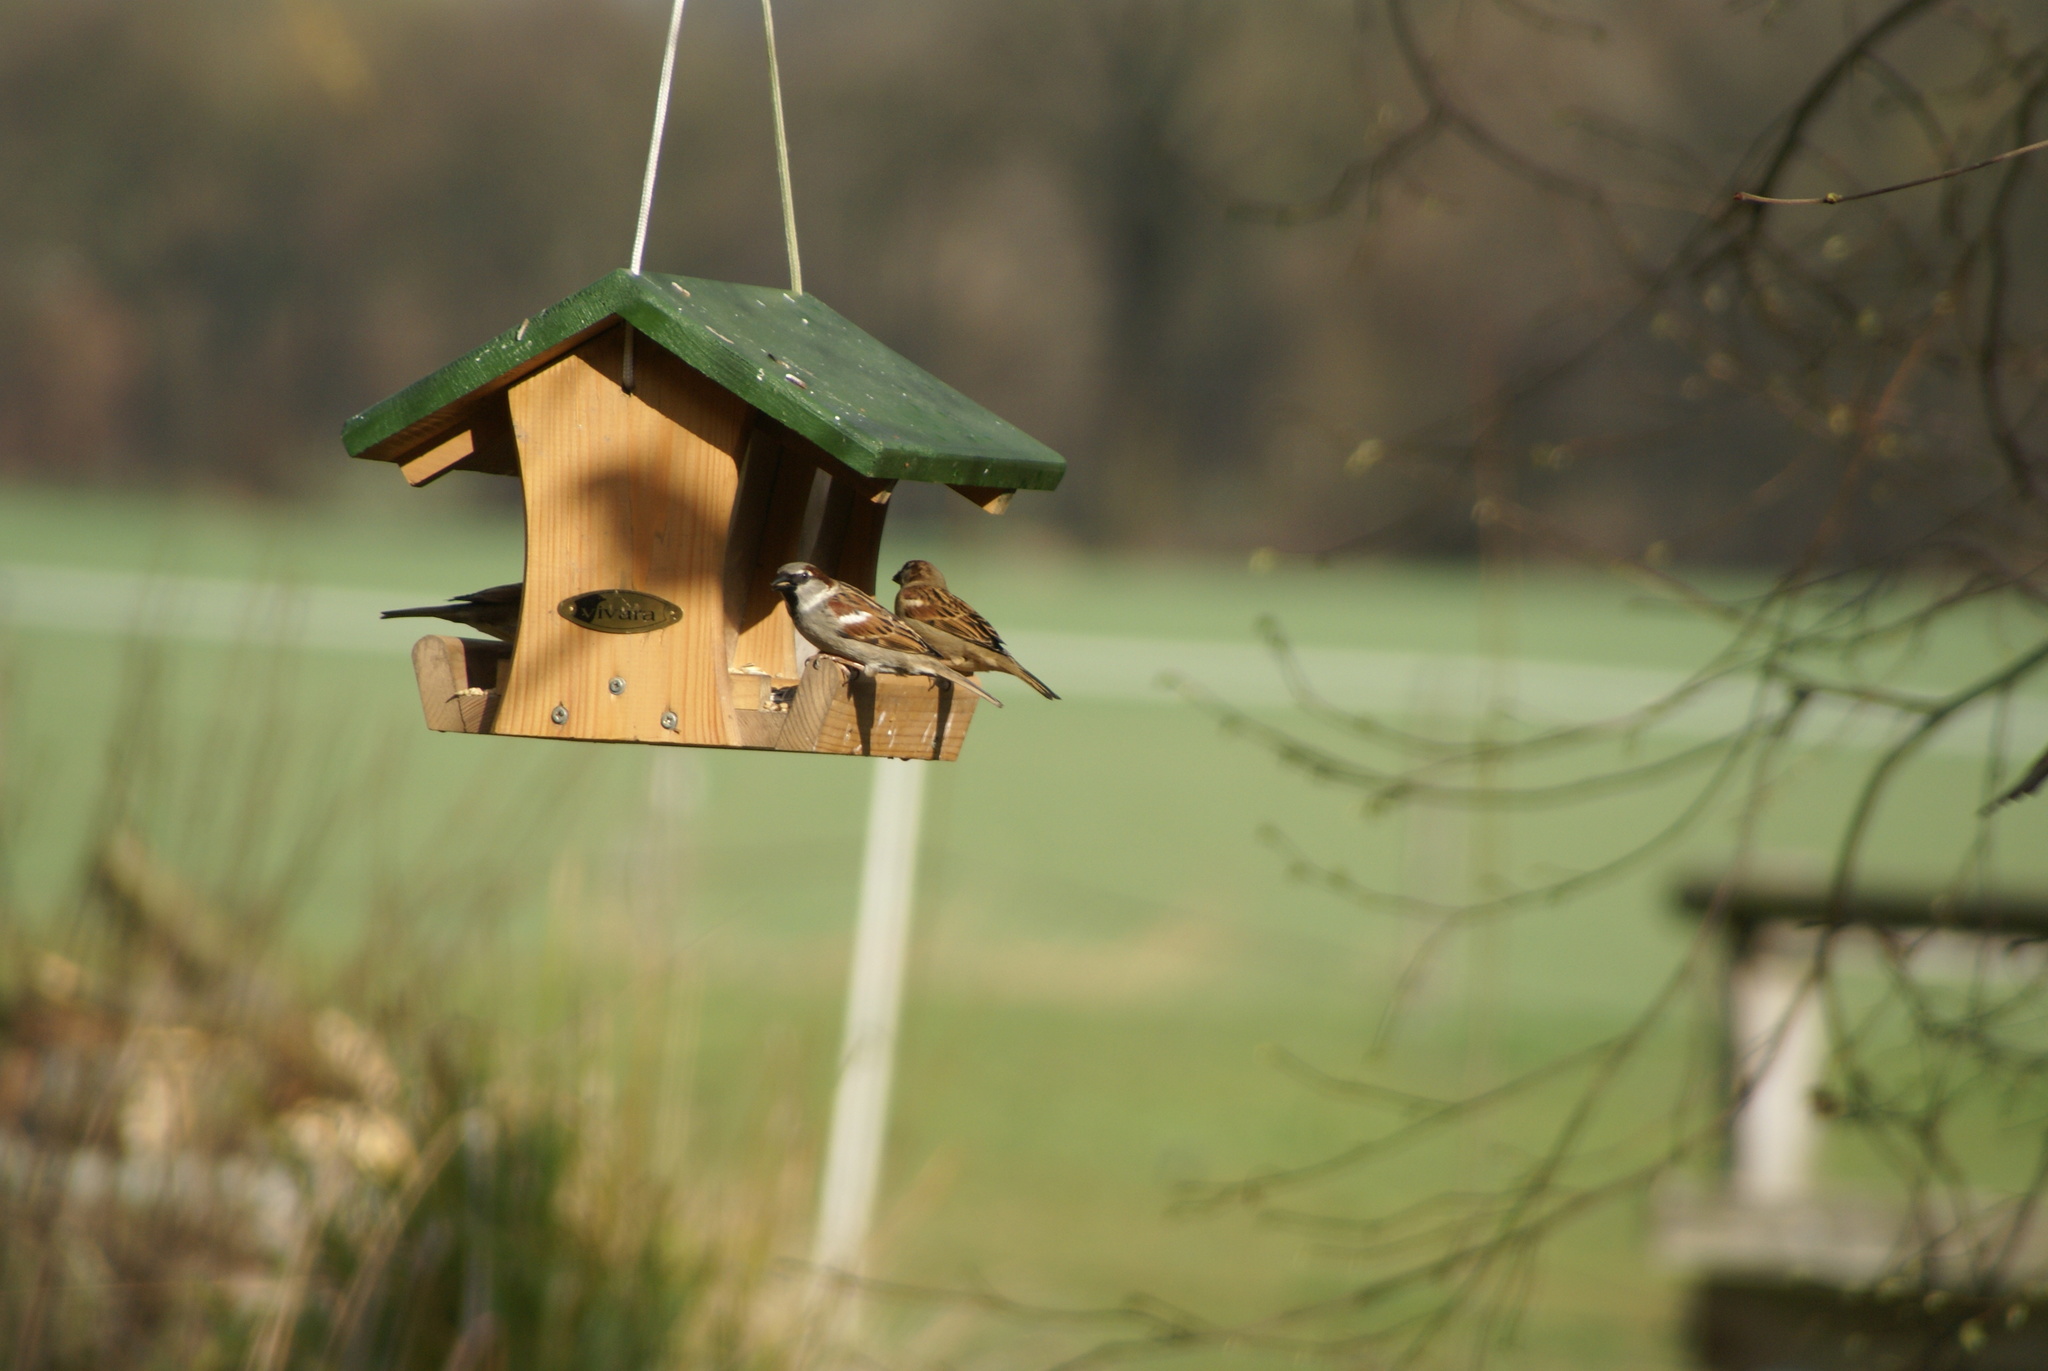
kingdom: Animalia
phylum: Chordata
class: Aves
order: Passeriformes
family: Passeridae
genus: Passer
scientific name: Passer domesticus
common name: House sparrow
